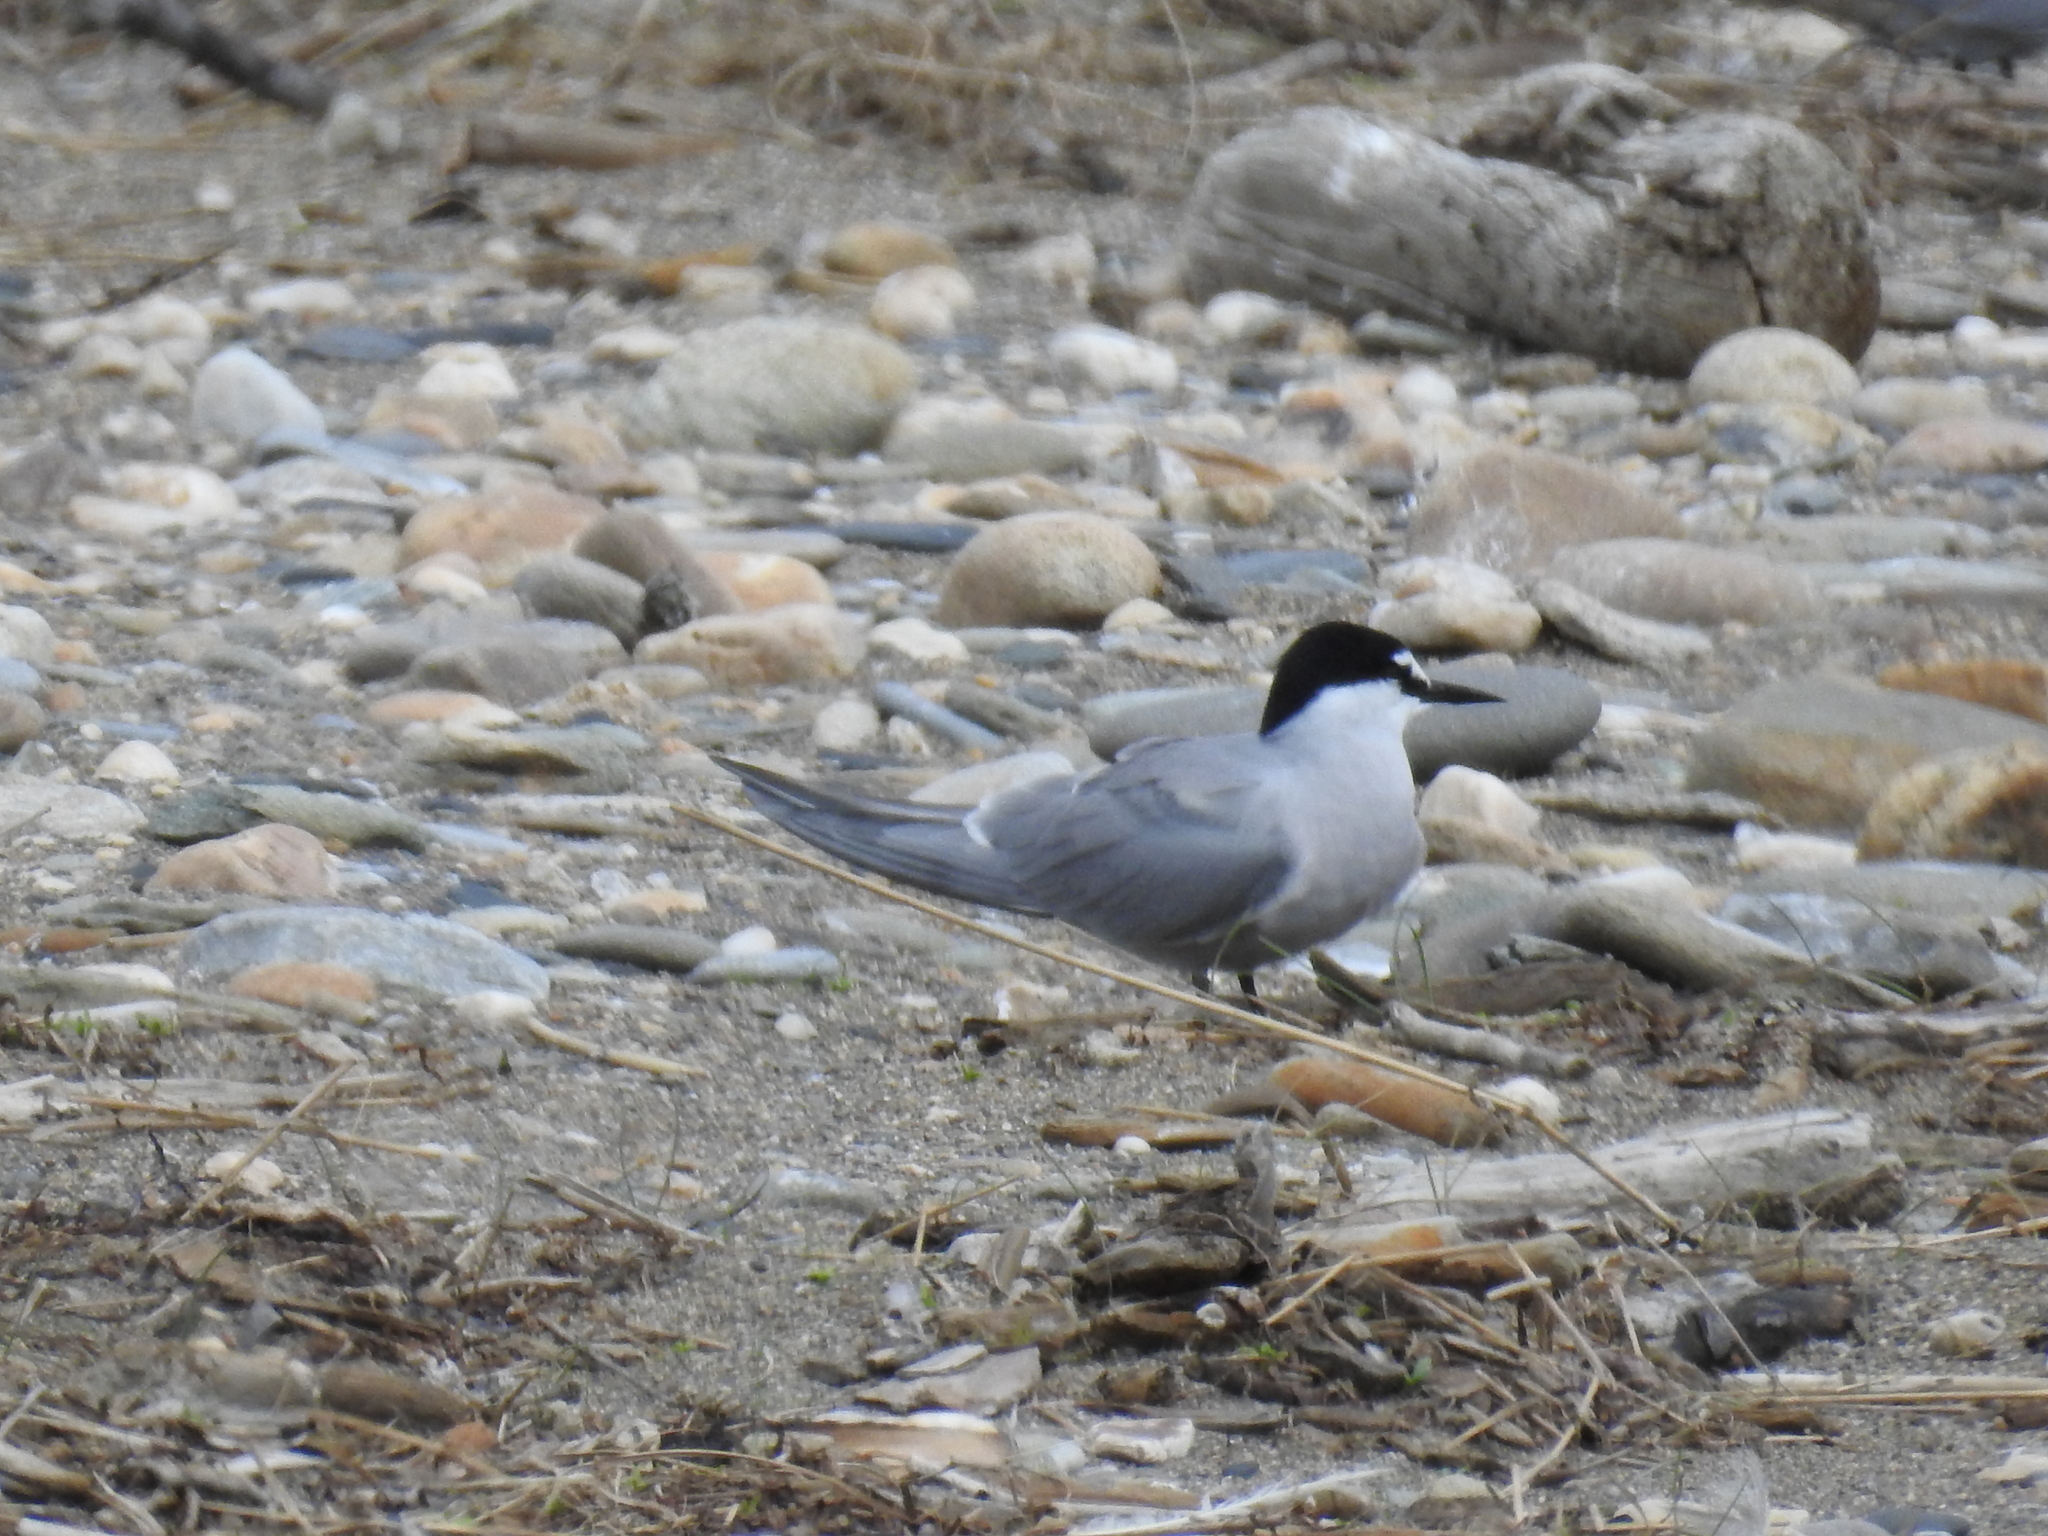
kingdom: Animalia
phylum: Chordata
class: Aves
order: Charadriiformes
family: Laridae
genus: Onychoprion
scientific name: Onychoprion aleuticus
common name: Aleutian tern
